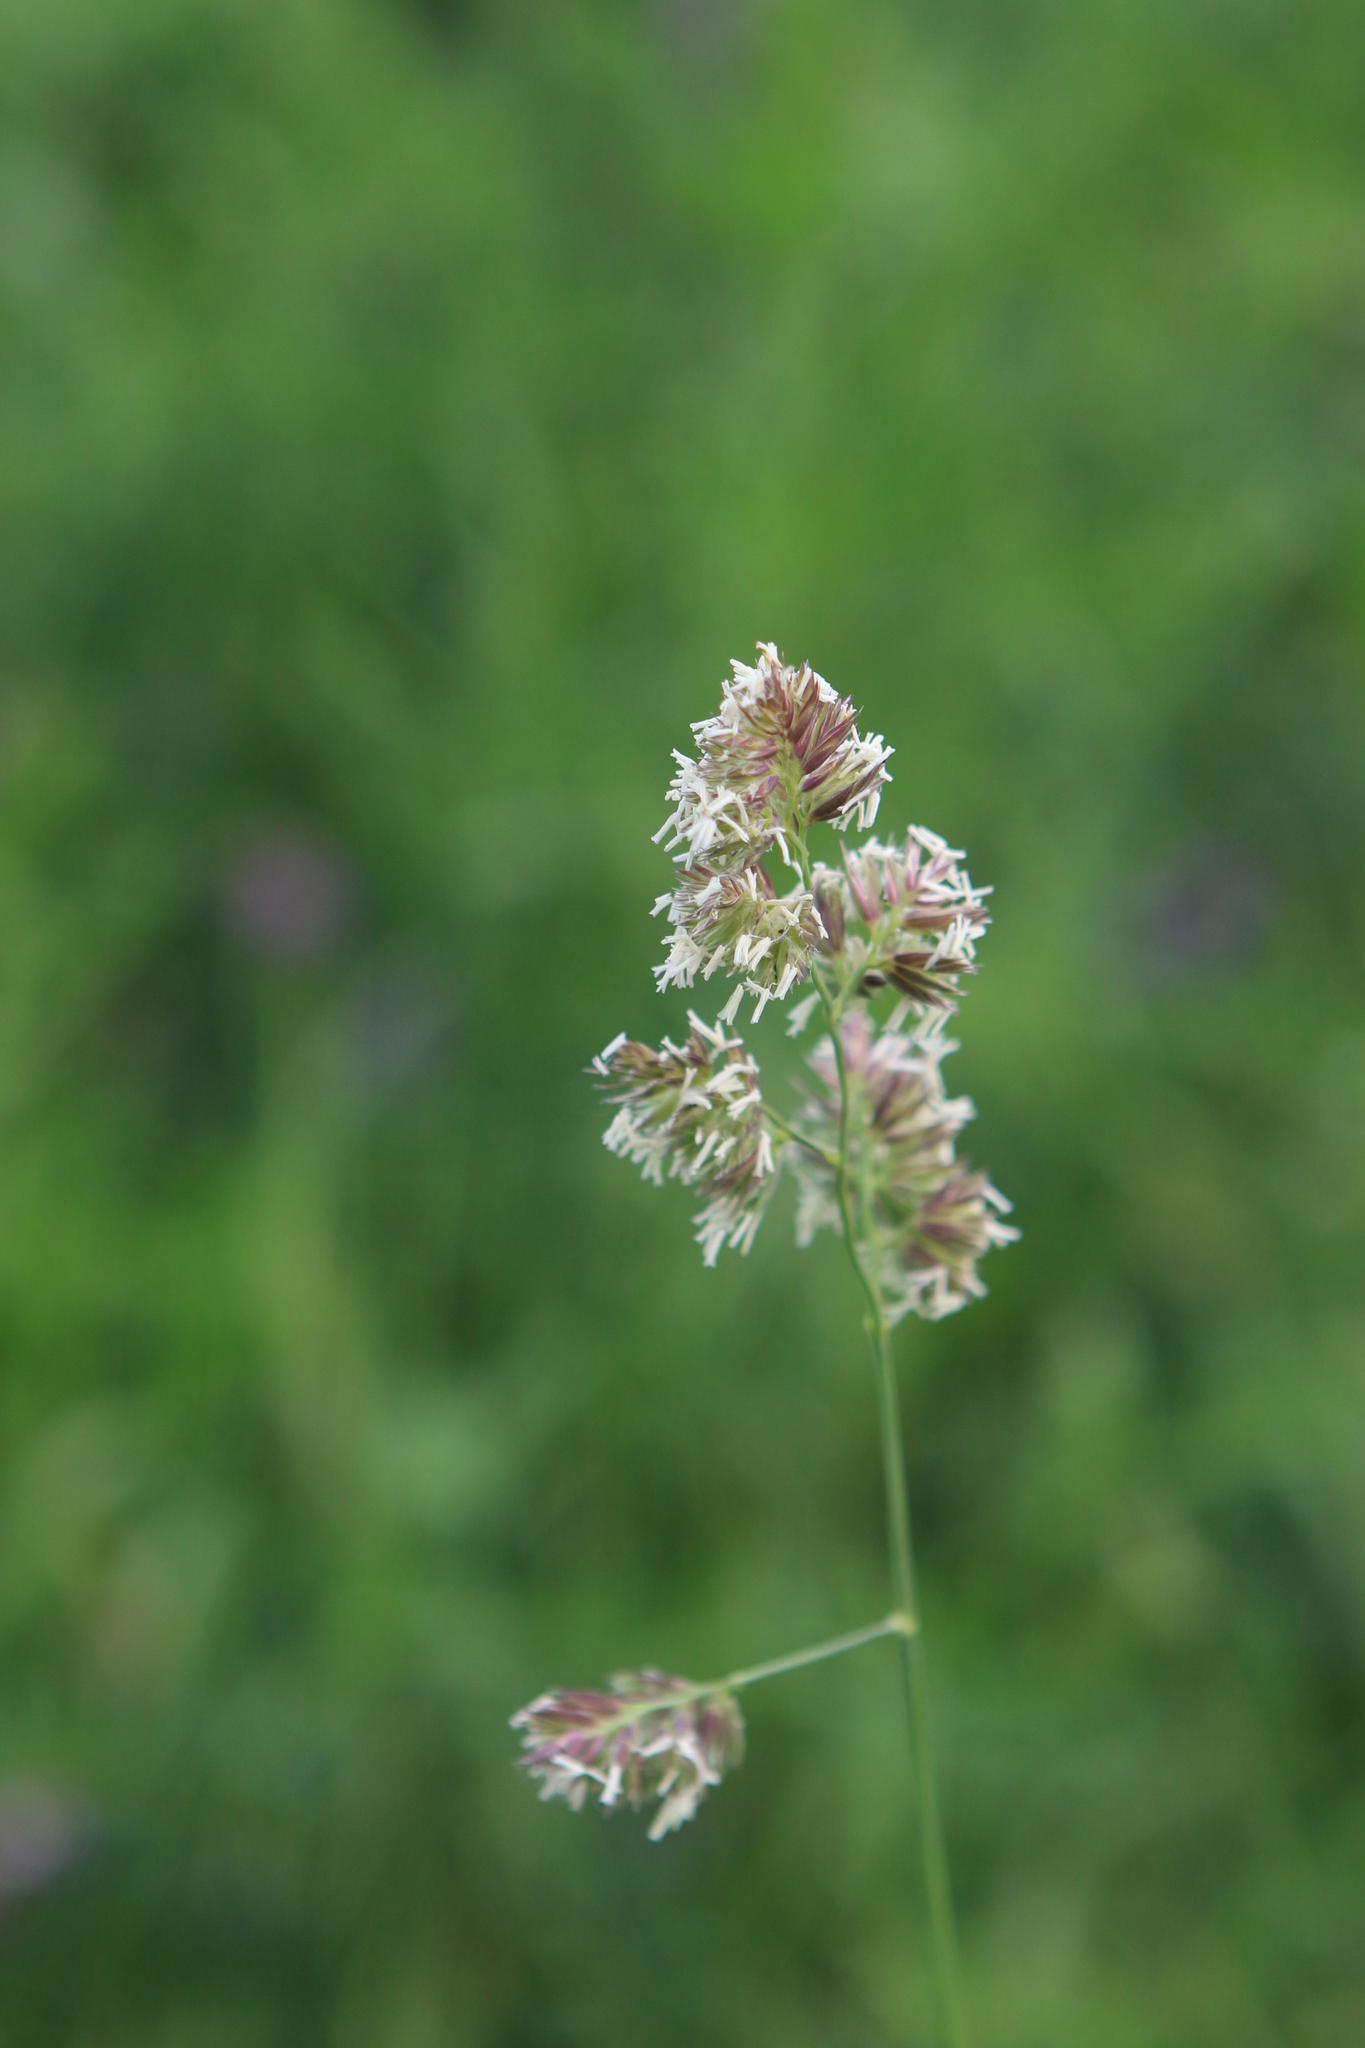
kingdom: Plantae
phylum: Tracheophyta
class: Liliopsida
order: Poales
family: Poaceae
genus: Dactylis
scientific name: Dactylis glomerata
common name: Orchardgrass
